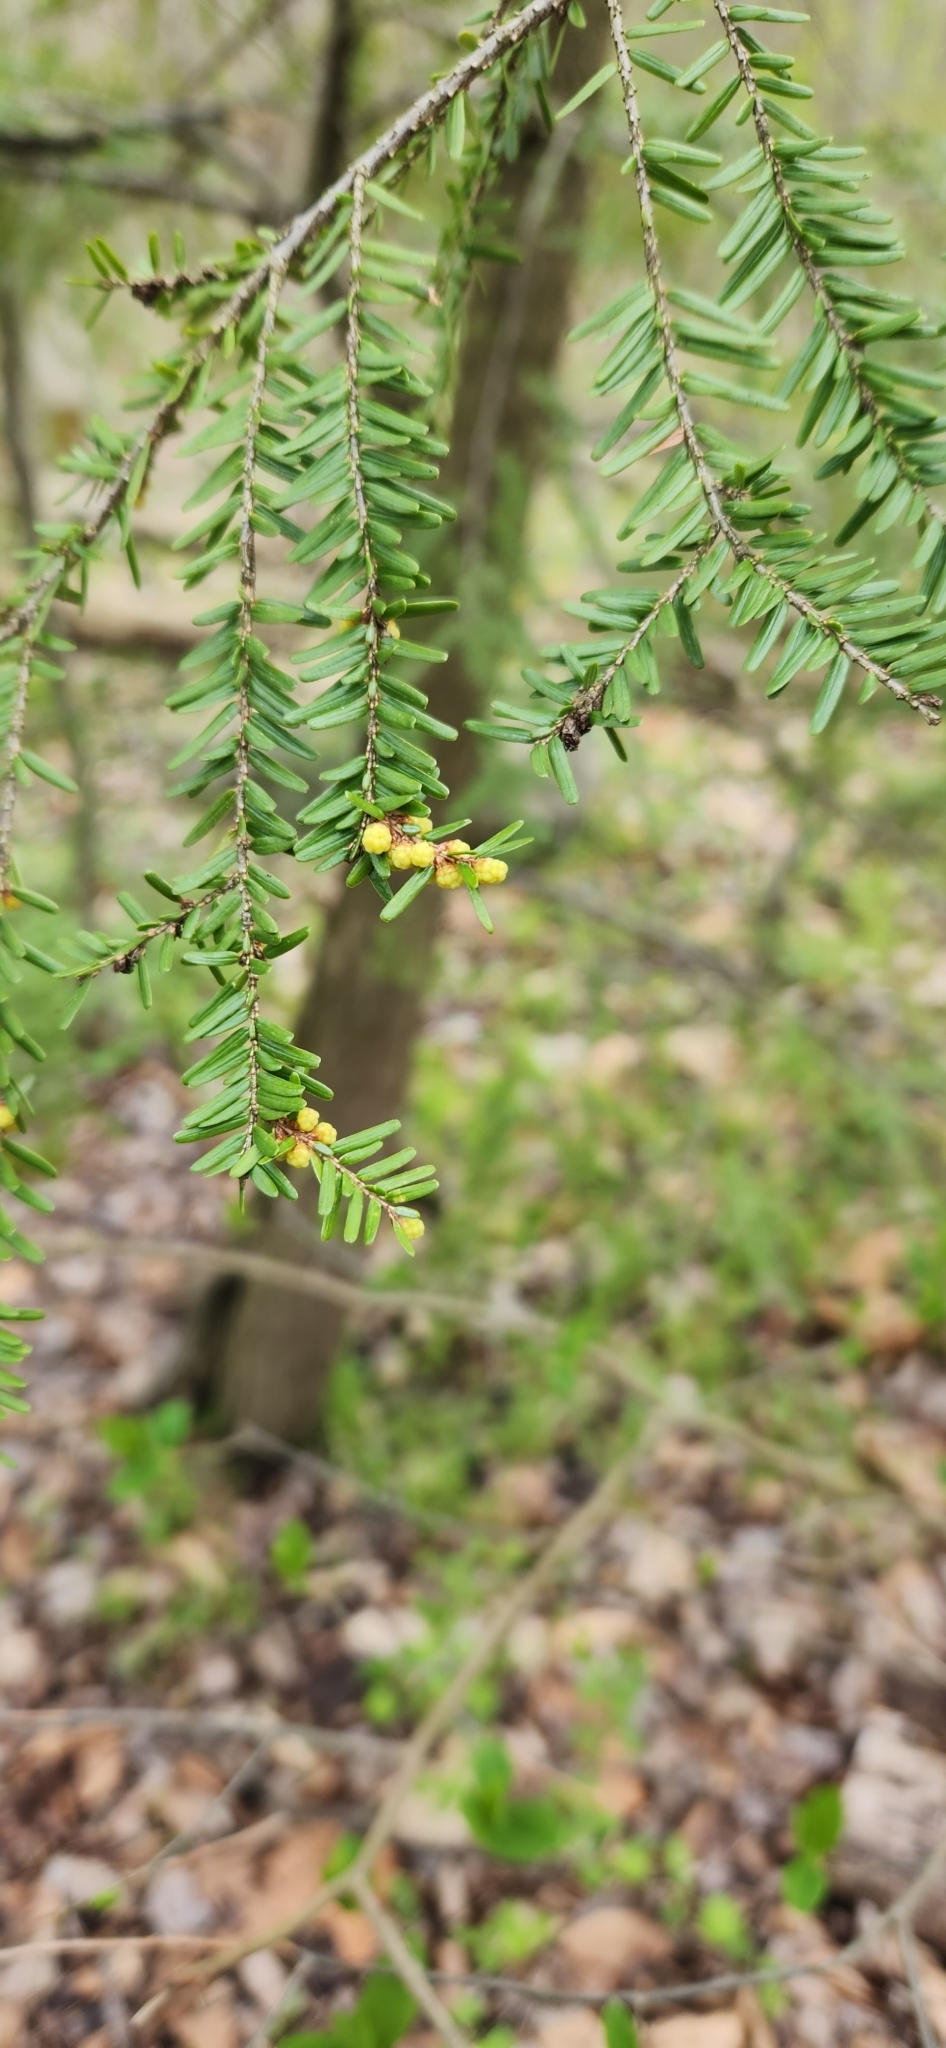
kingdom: Plantae
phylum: Tracheophyta
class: Pinopsida
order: Pinales
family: Pinaceae
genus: Tsuga
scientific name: Tsuga canadensis
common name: Eastern hemlock
